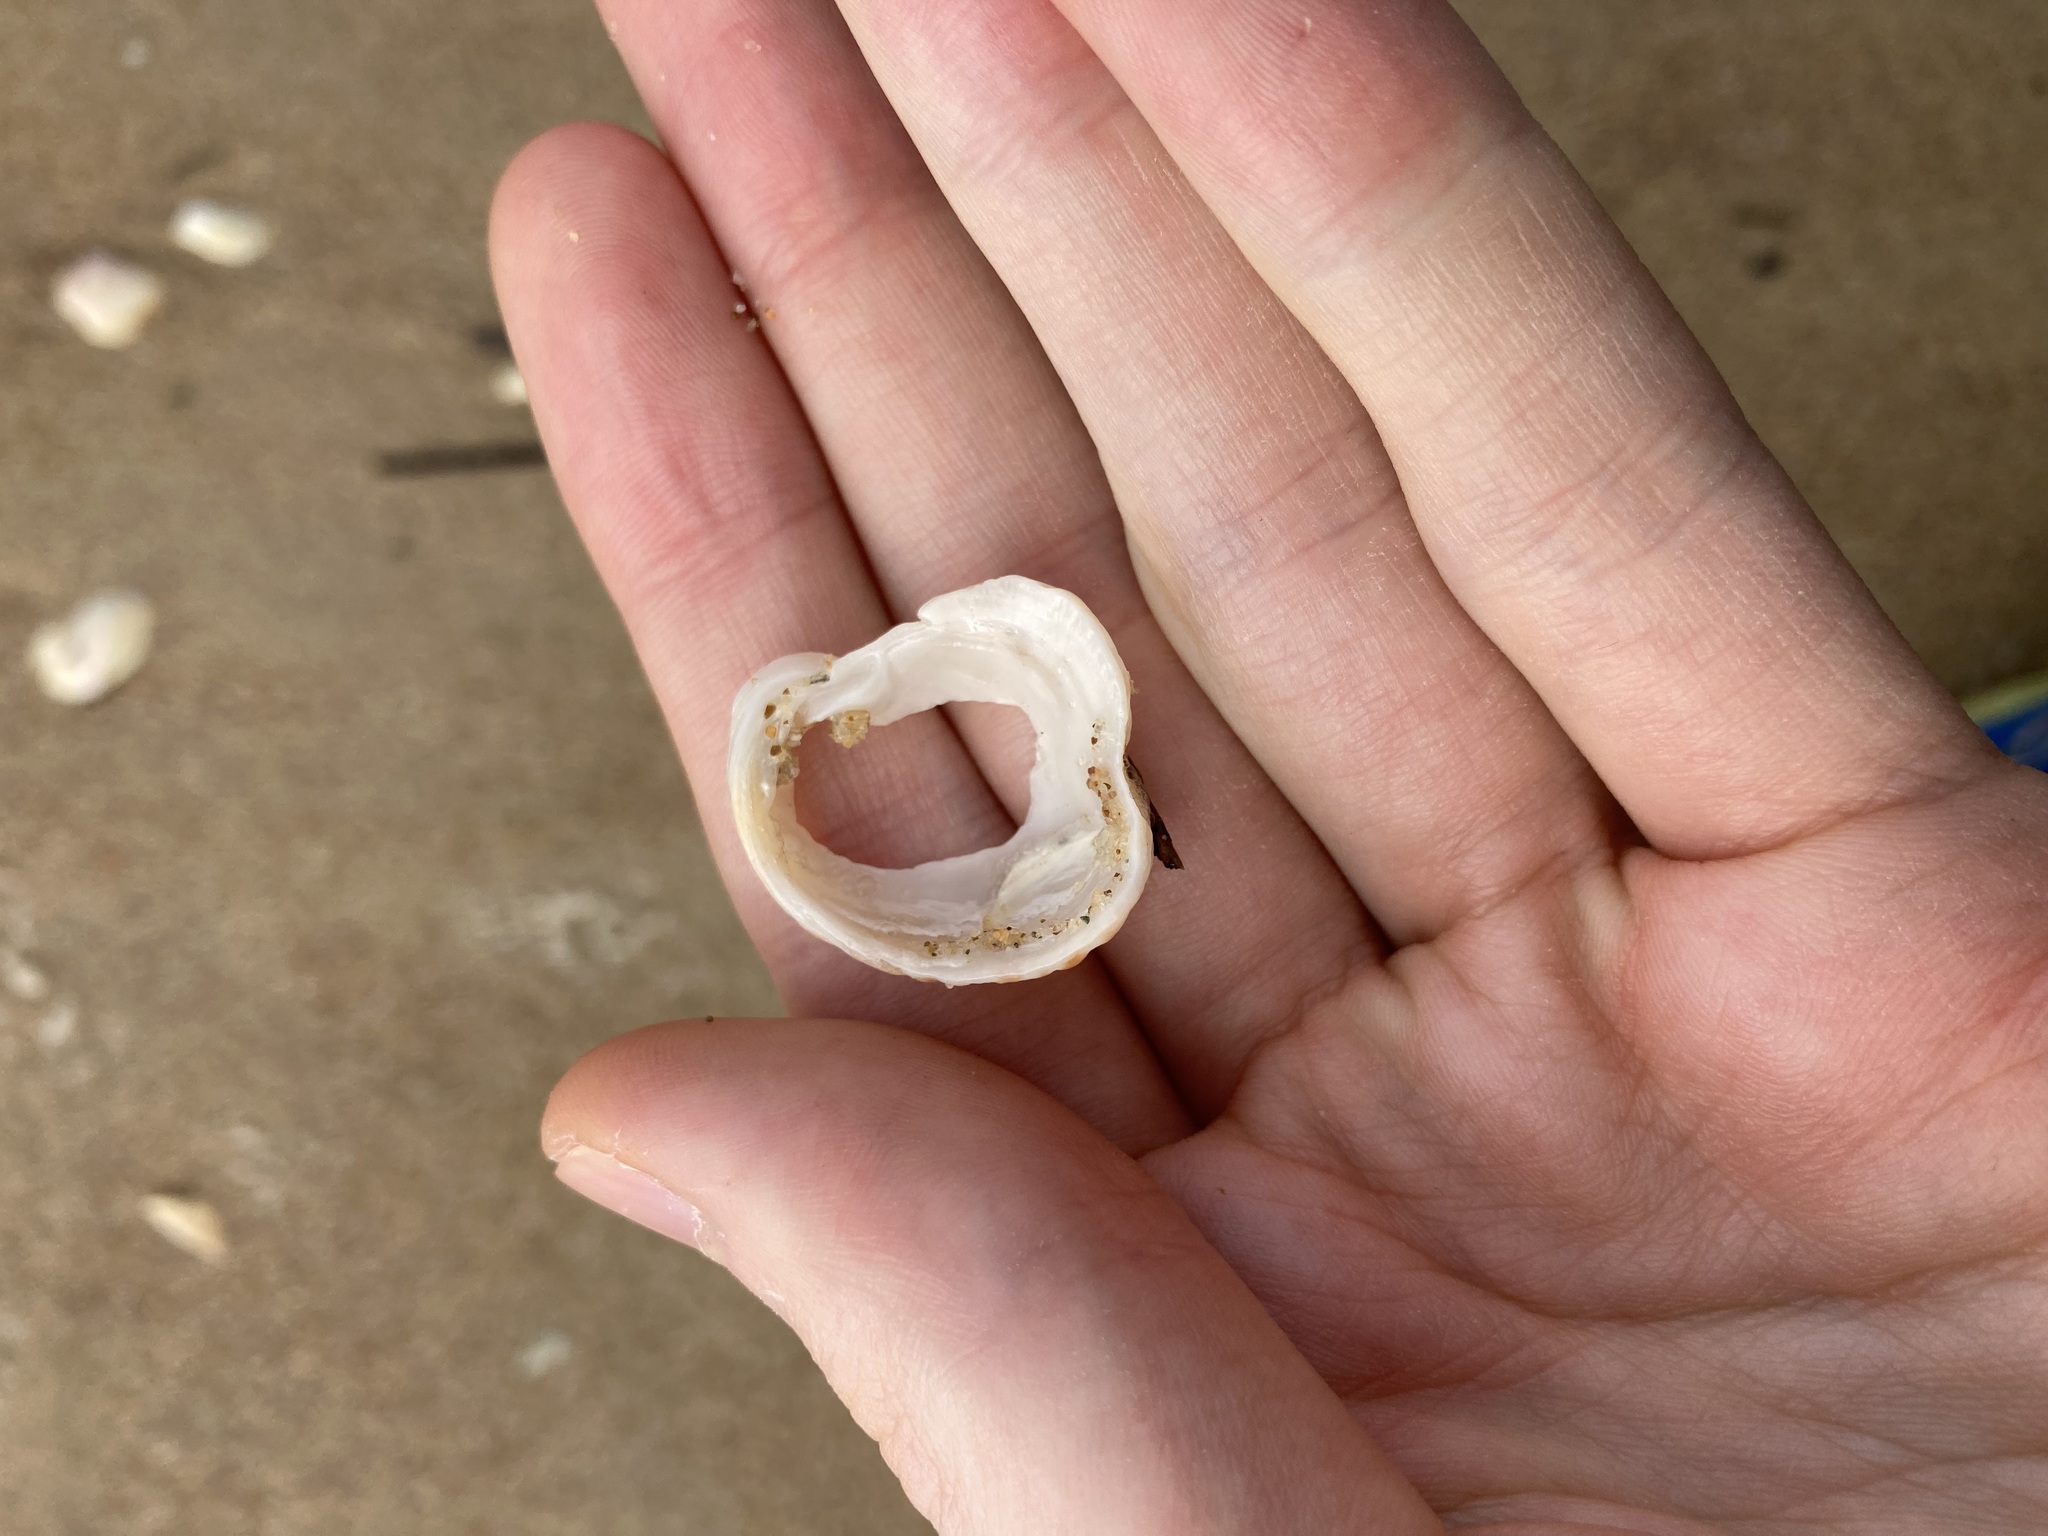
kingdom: Animalia
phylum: Mollusca
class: Bivalvia
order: Venerida
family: Chamidae
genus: Chama
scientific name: Chama asperella
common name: Mollusca
